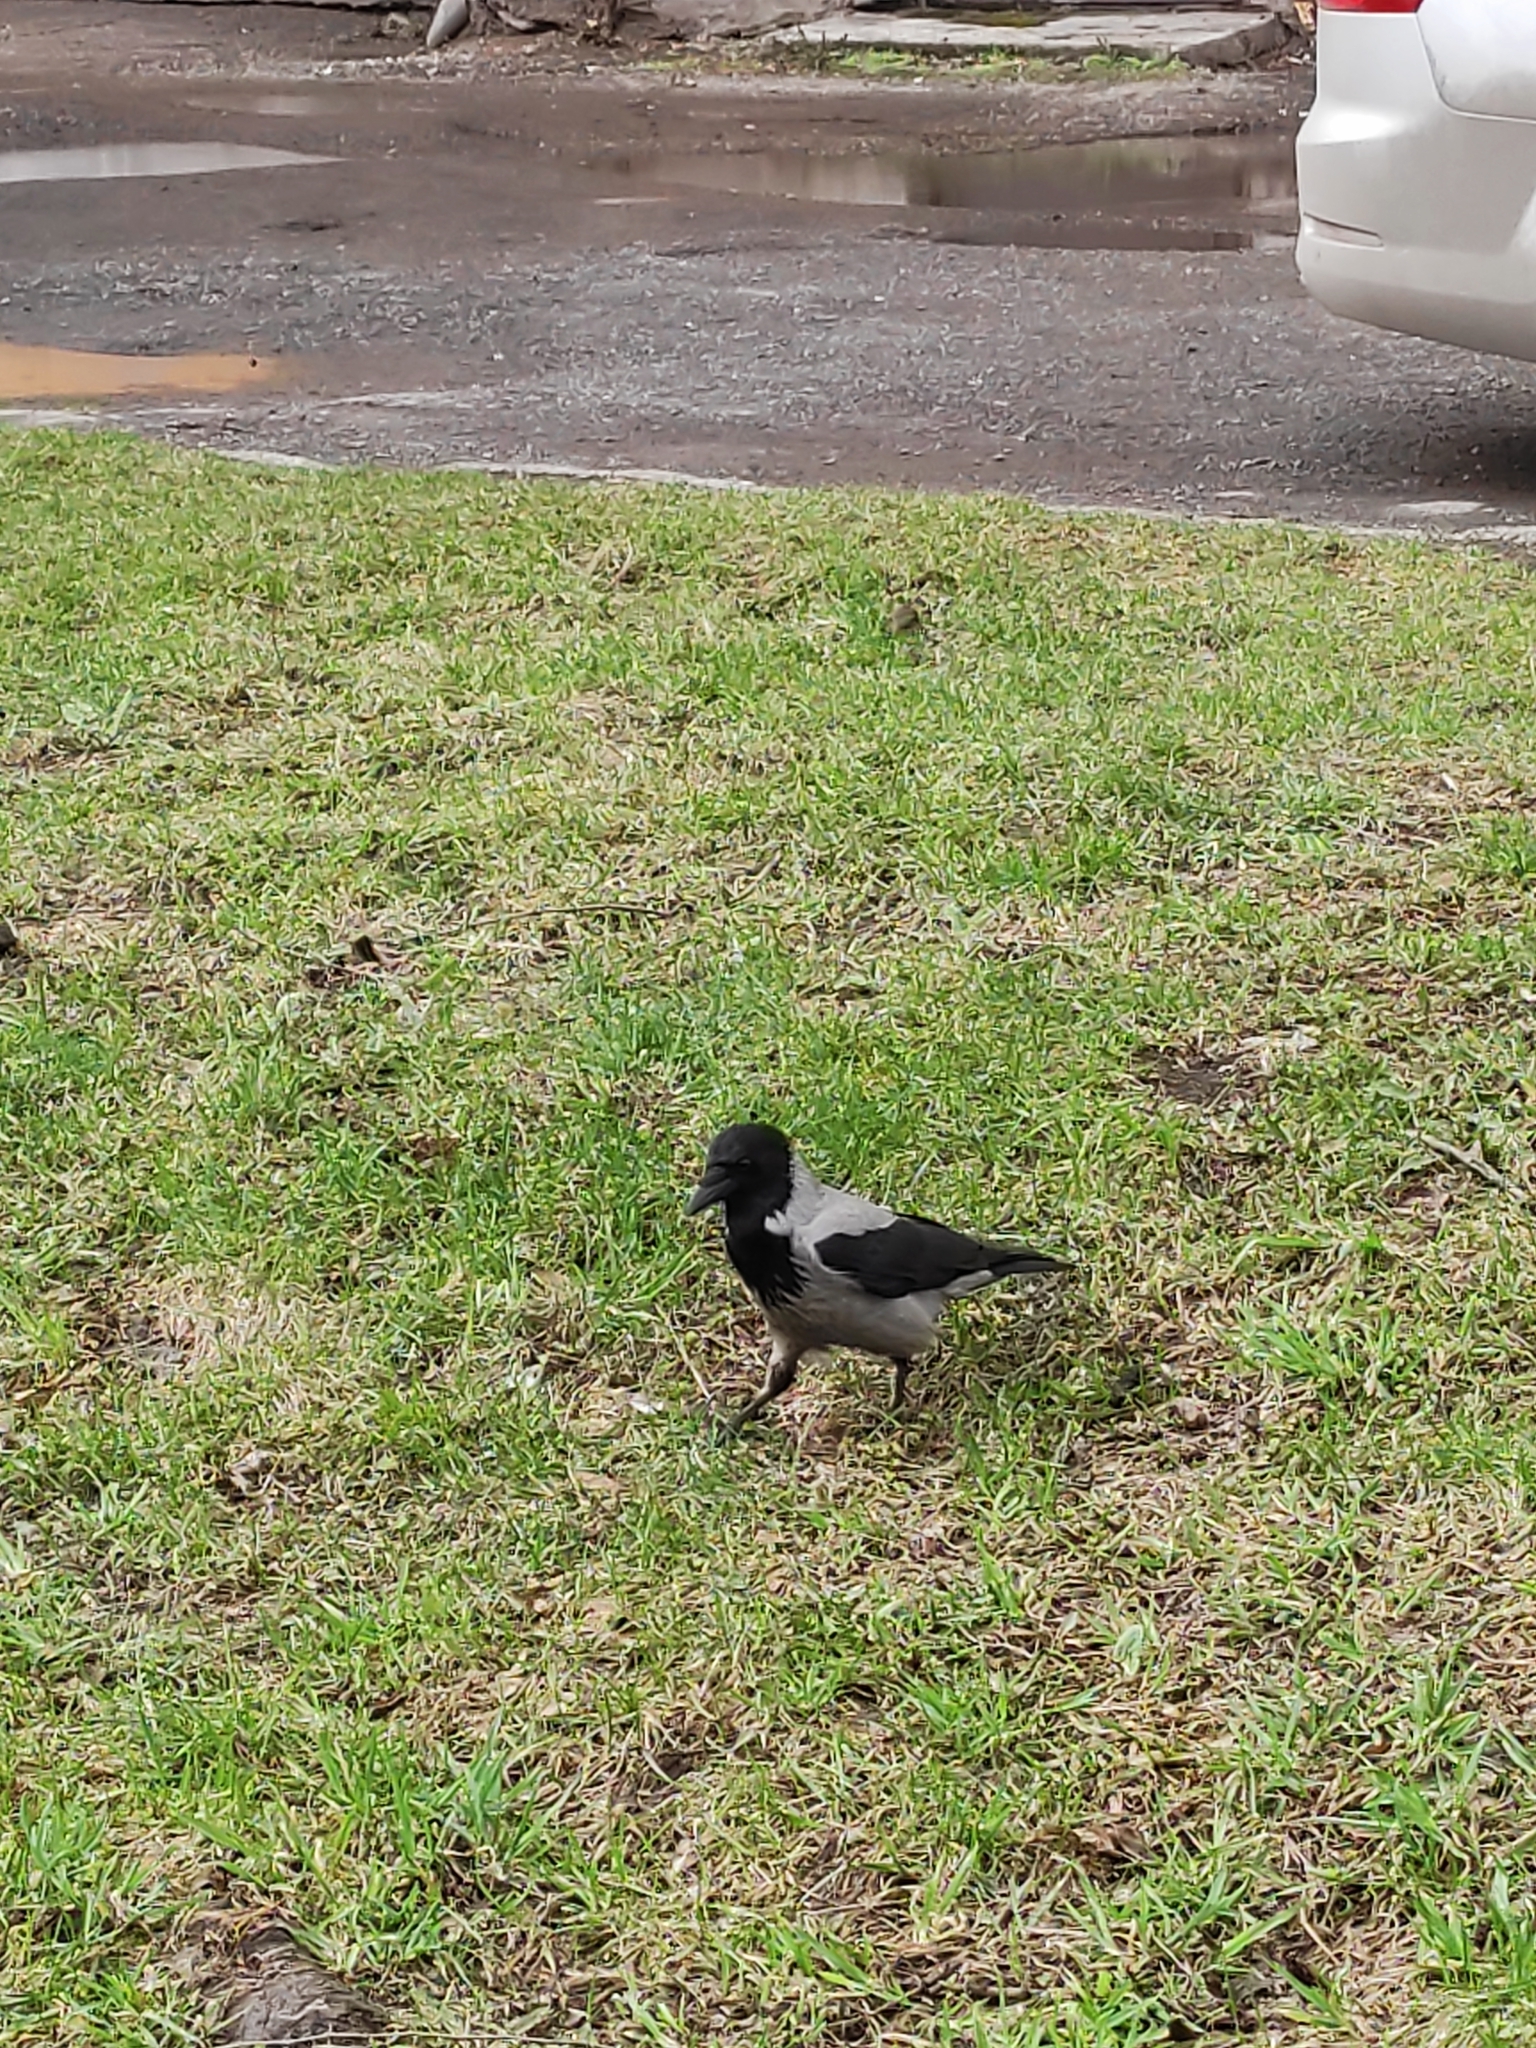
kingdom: Animalia
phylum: Chordata
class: Aves
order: Passeriformes
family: Corvidae
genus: Corvus
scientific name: Corvus cornix
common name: Hooded crow
